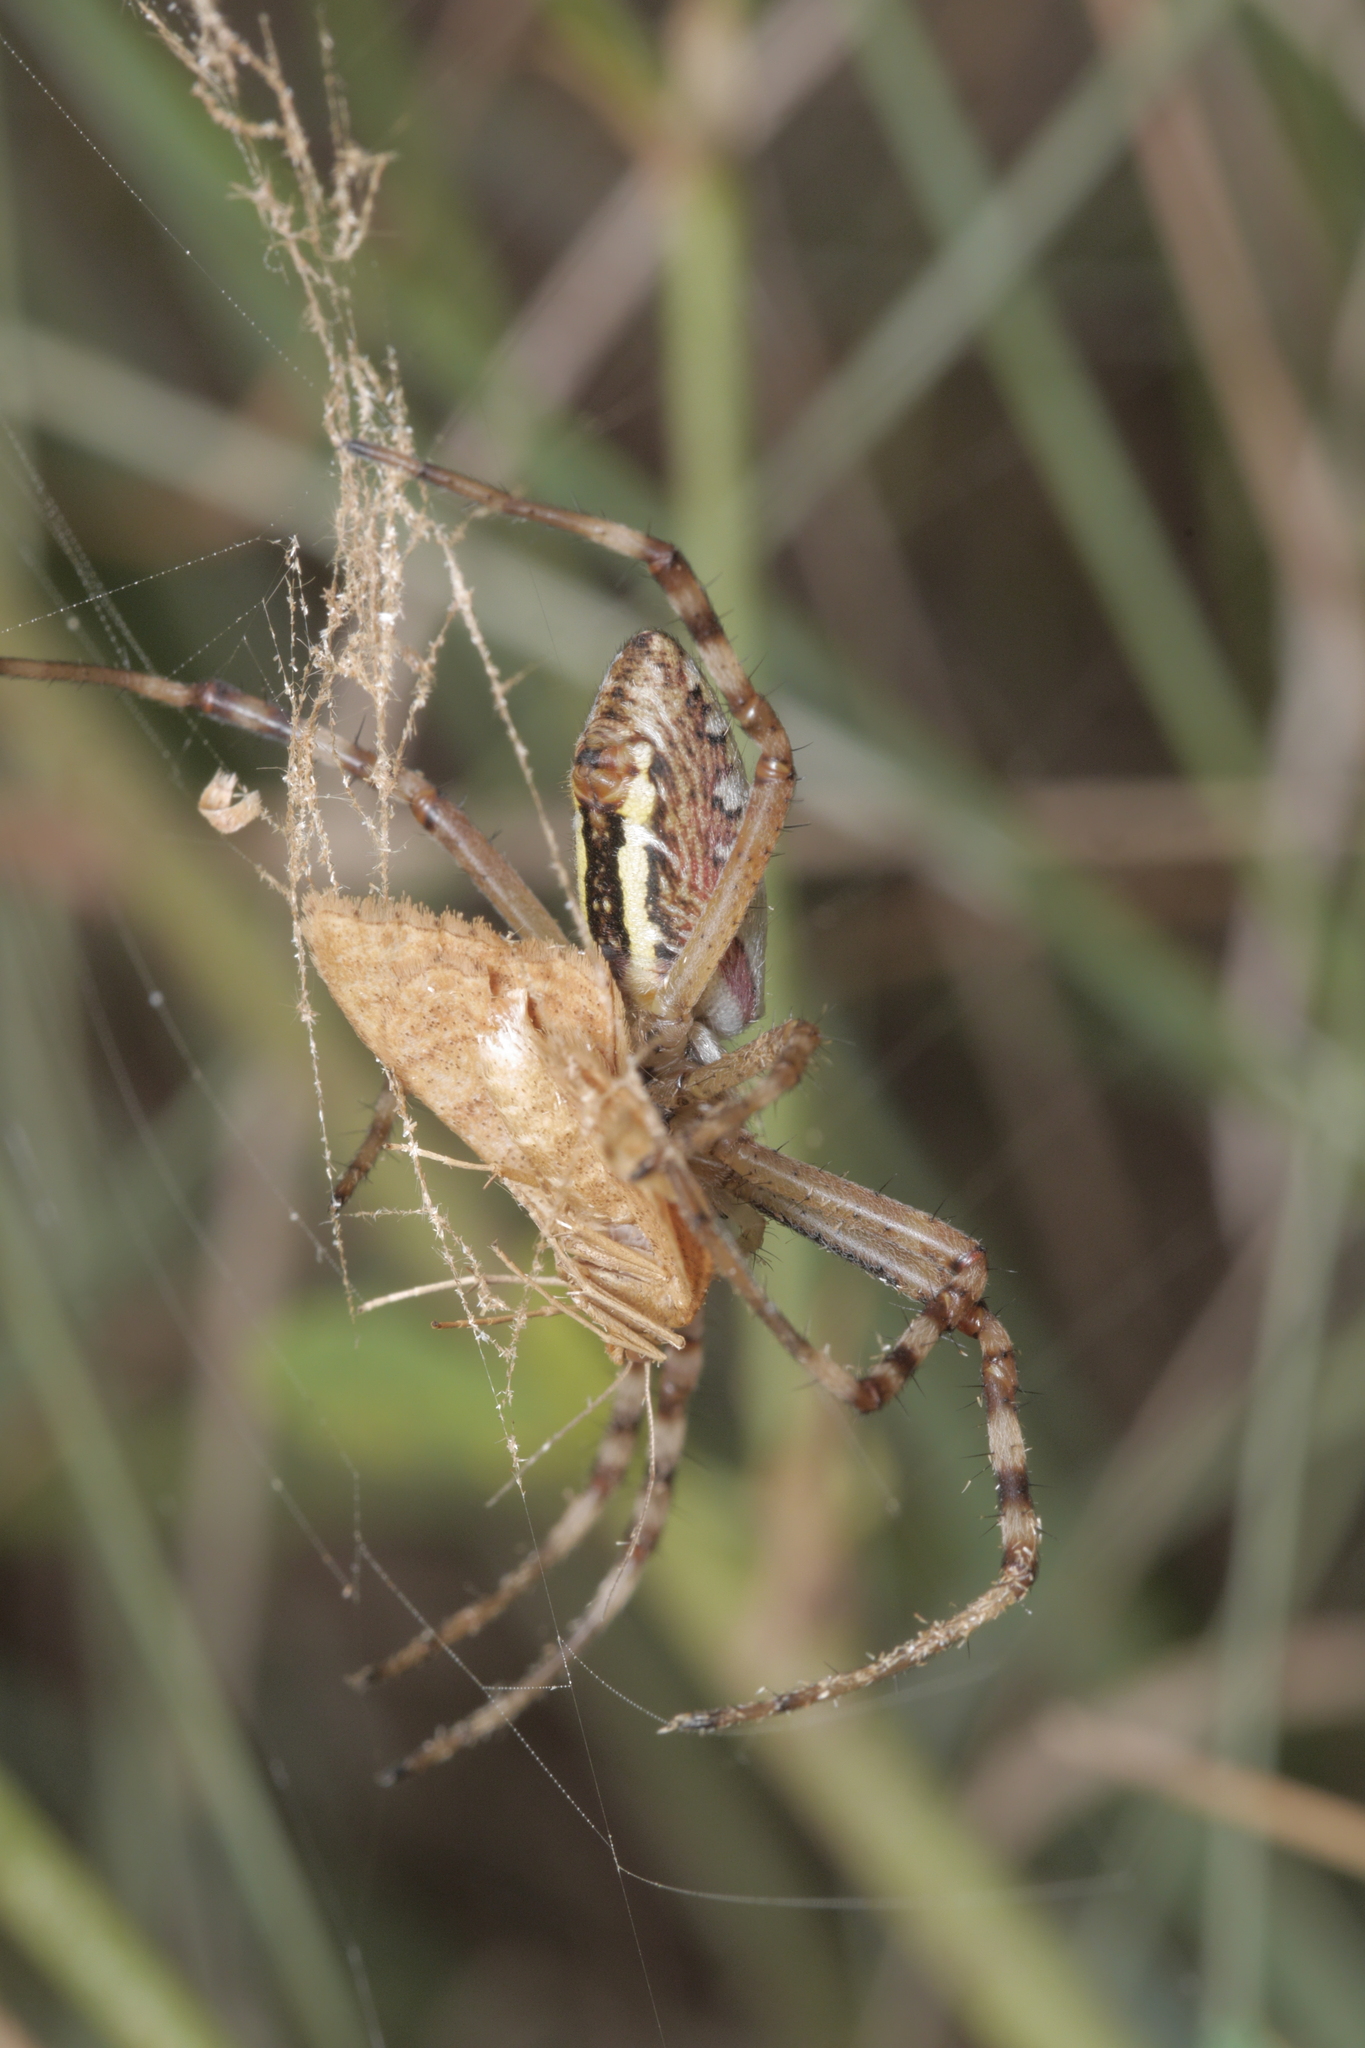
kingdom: Animalia
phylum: Arthropoda
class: Arachnida
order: Araneae
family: Araneidae
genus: Argiope
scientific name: Argiope bruennichi
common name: Wasp spider
